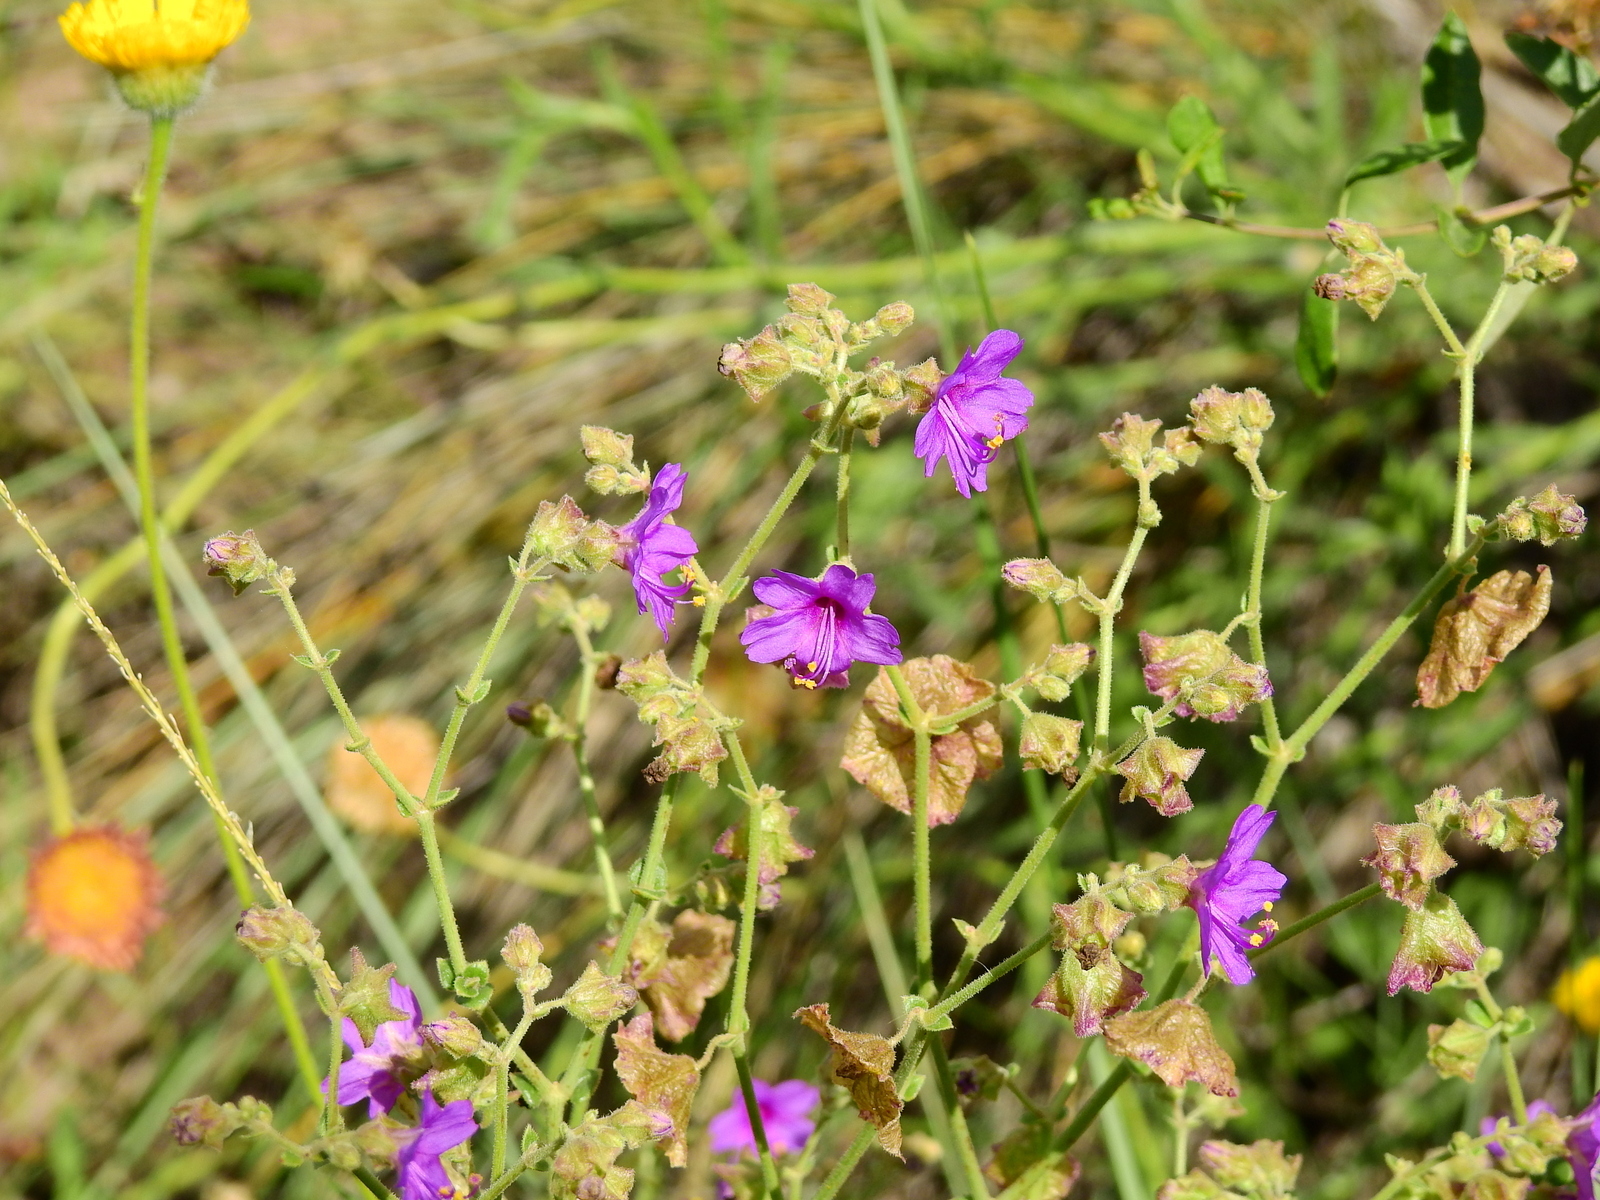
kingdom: Plantae
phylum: Tracheophyta
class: Magnoliopsida
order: Caryophyllales
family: Nyctaginaceae
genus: Mirabilis
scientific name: Mirabilis ovata
